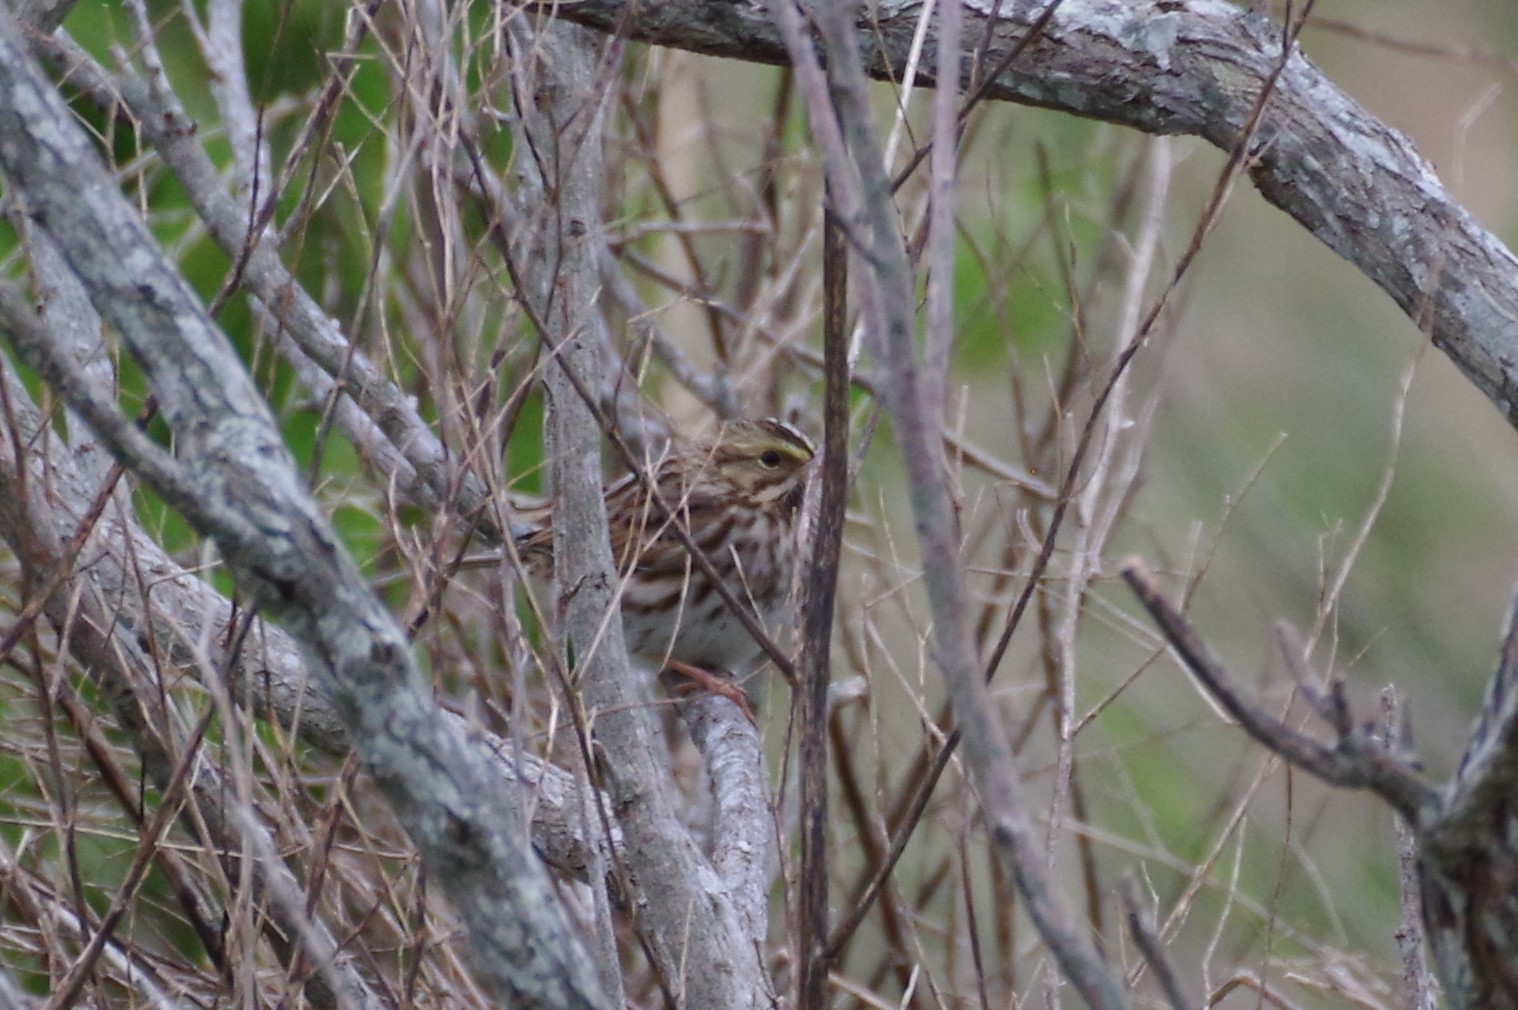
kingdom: Animalia
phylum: Chordata
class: Aves
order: Passeriformes
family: Passerellidae
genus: Passerculus
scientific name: Passerculus sandwichensis
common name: Savannah sparrow
